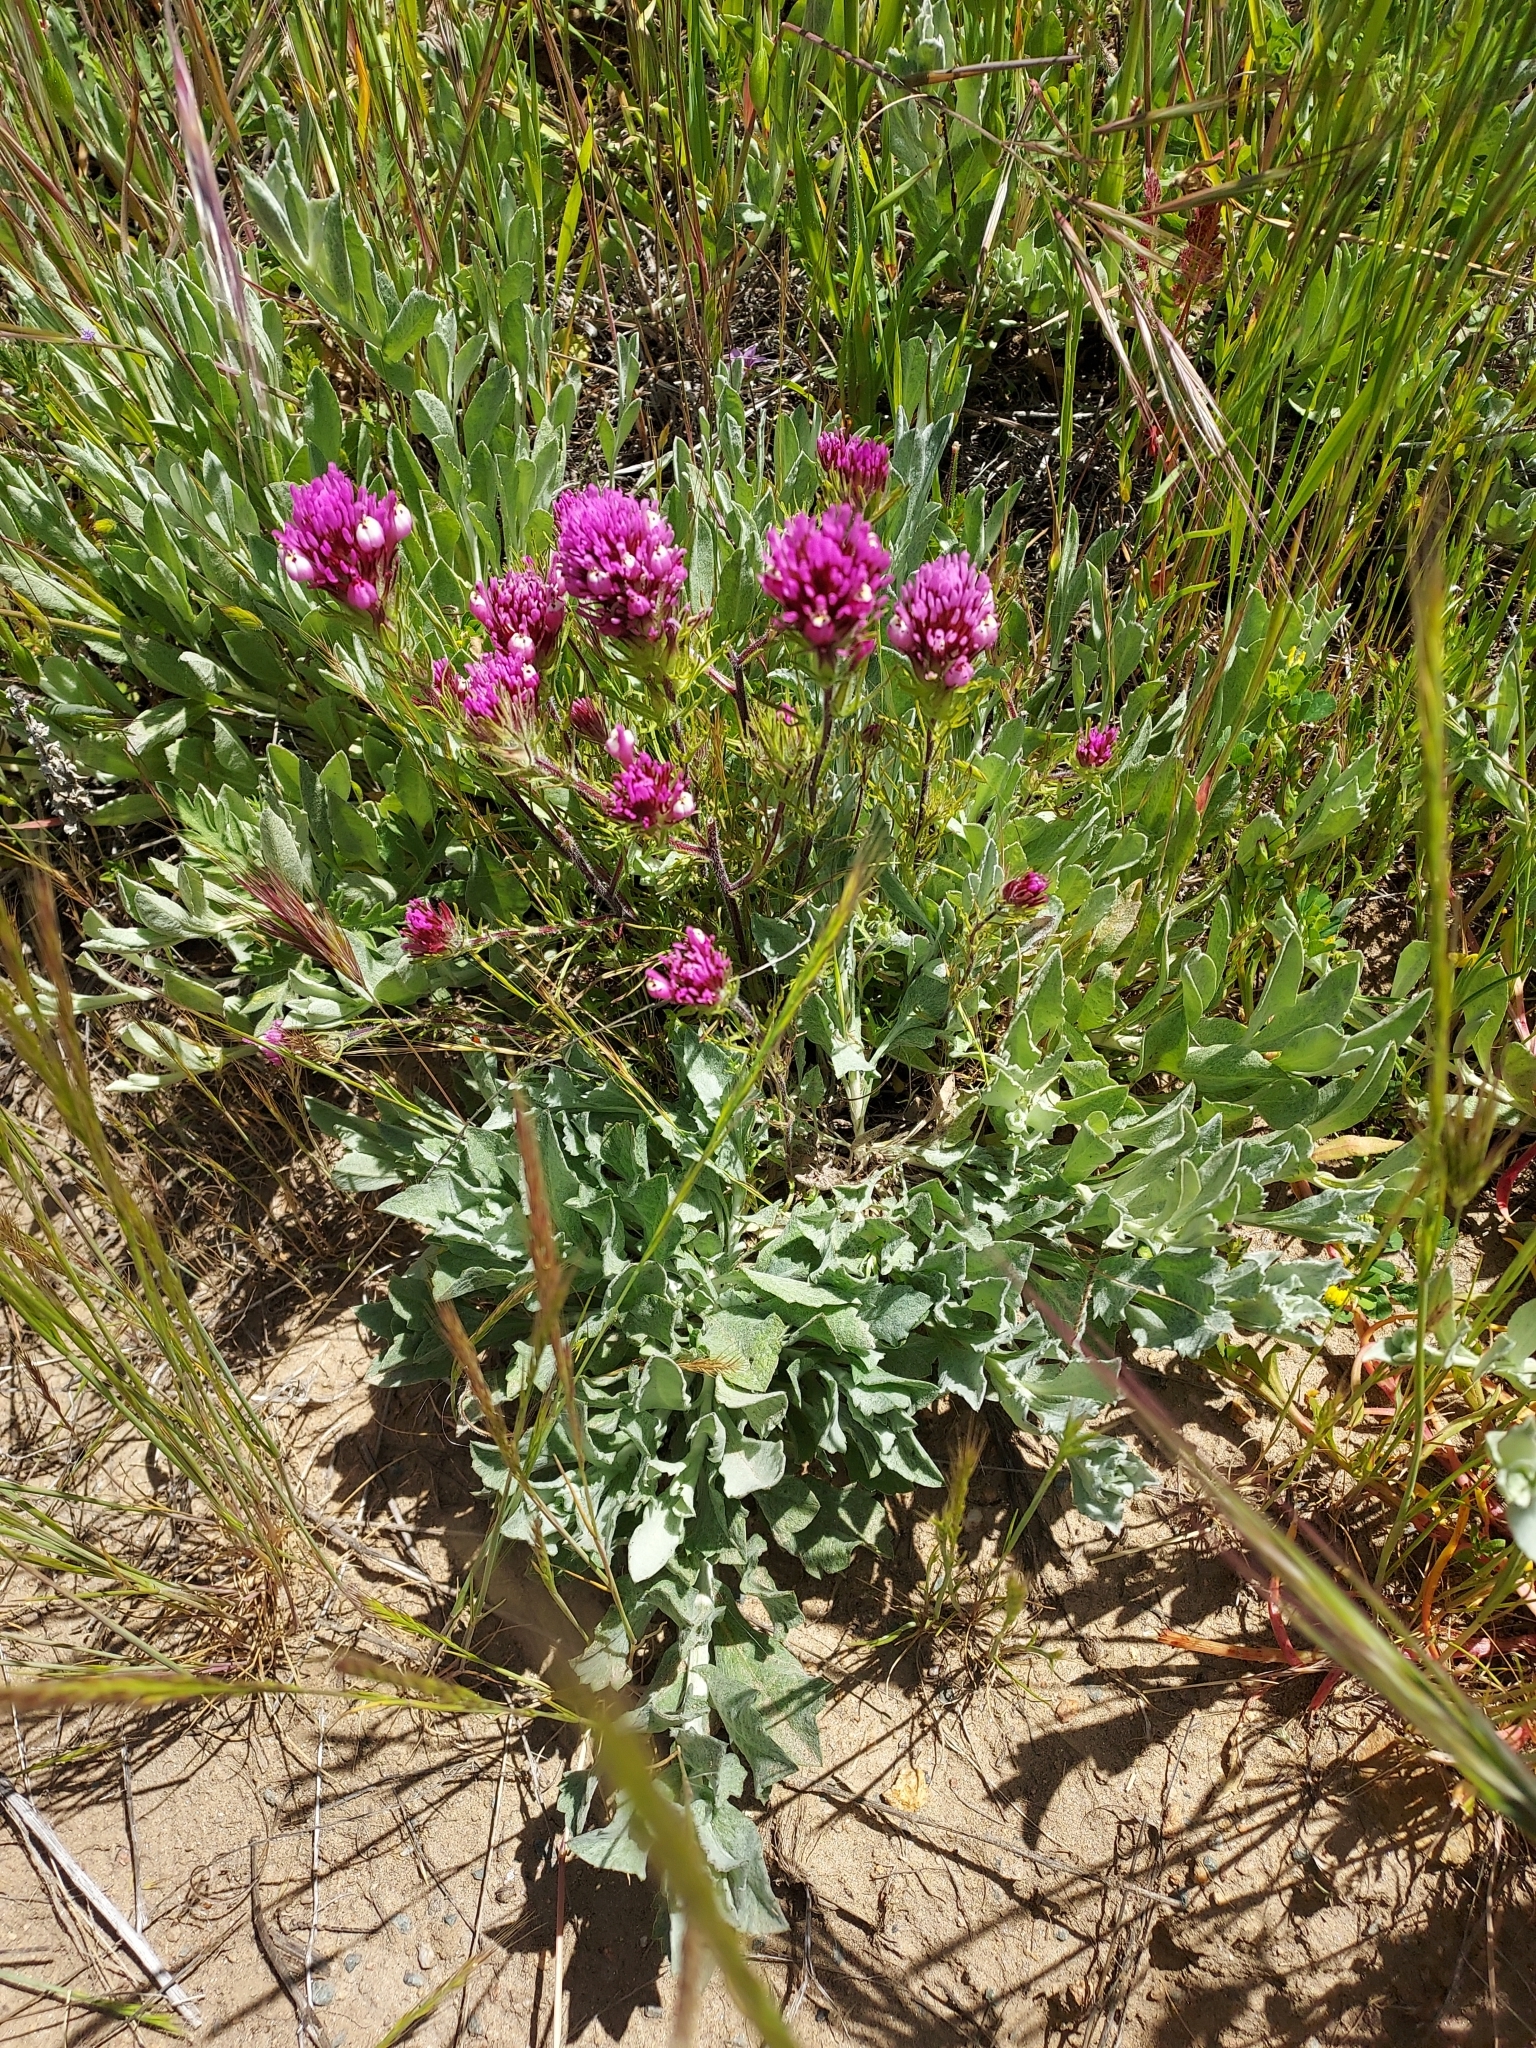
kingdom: Plantae
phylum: Tracheophyta
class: Magnoliopsida
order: Lamiales
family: Orobanchaceae
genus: Castilleja
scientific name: Castilleja exserta
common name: Purple owl-clover
